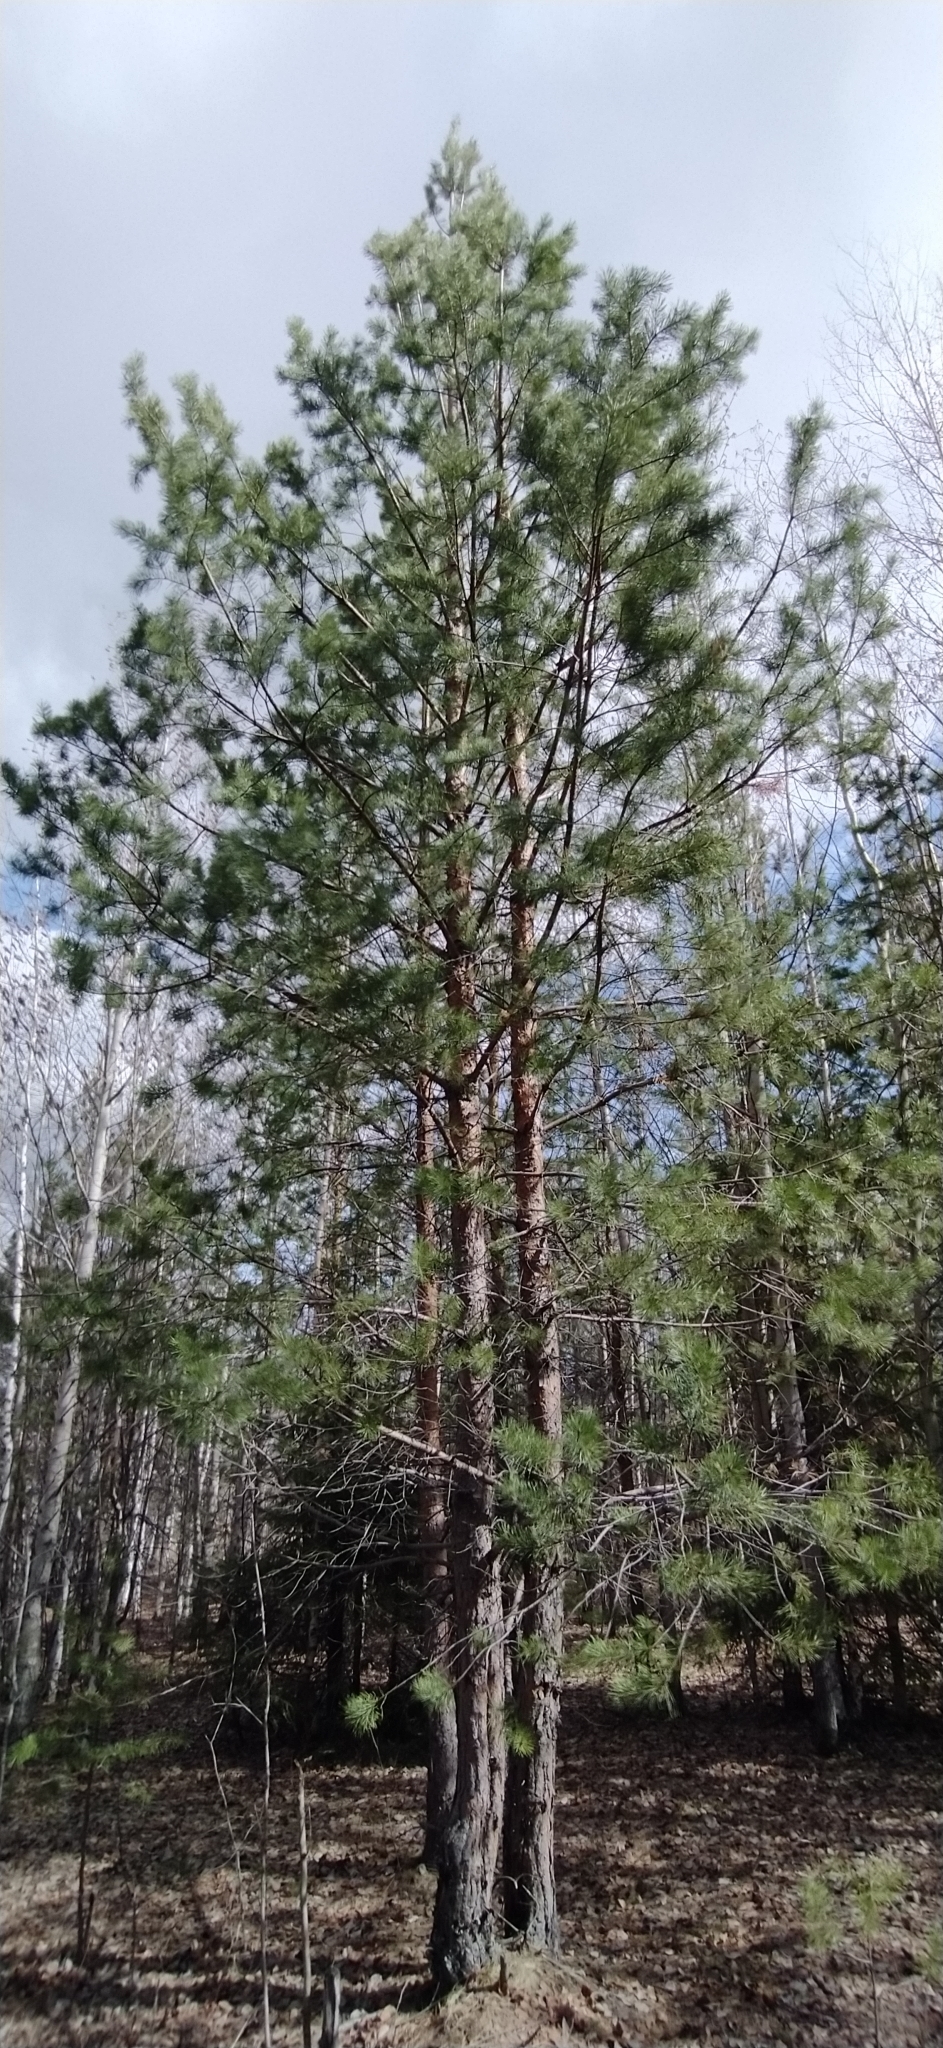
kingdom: Plantae
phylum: Tracheophyta
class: Pinopsida
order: Pinales
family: Pinaceae
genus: Pinus
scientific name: Pinus sylvestris
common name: Scots pine
